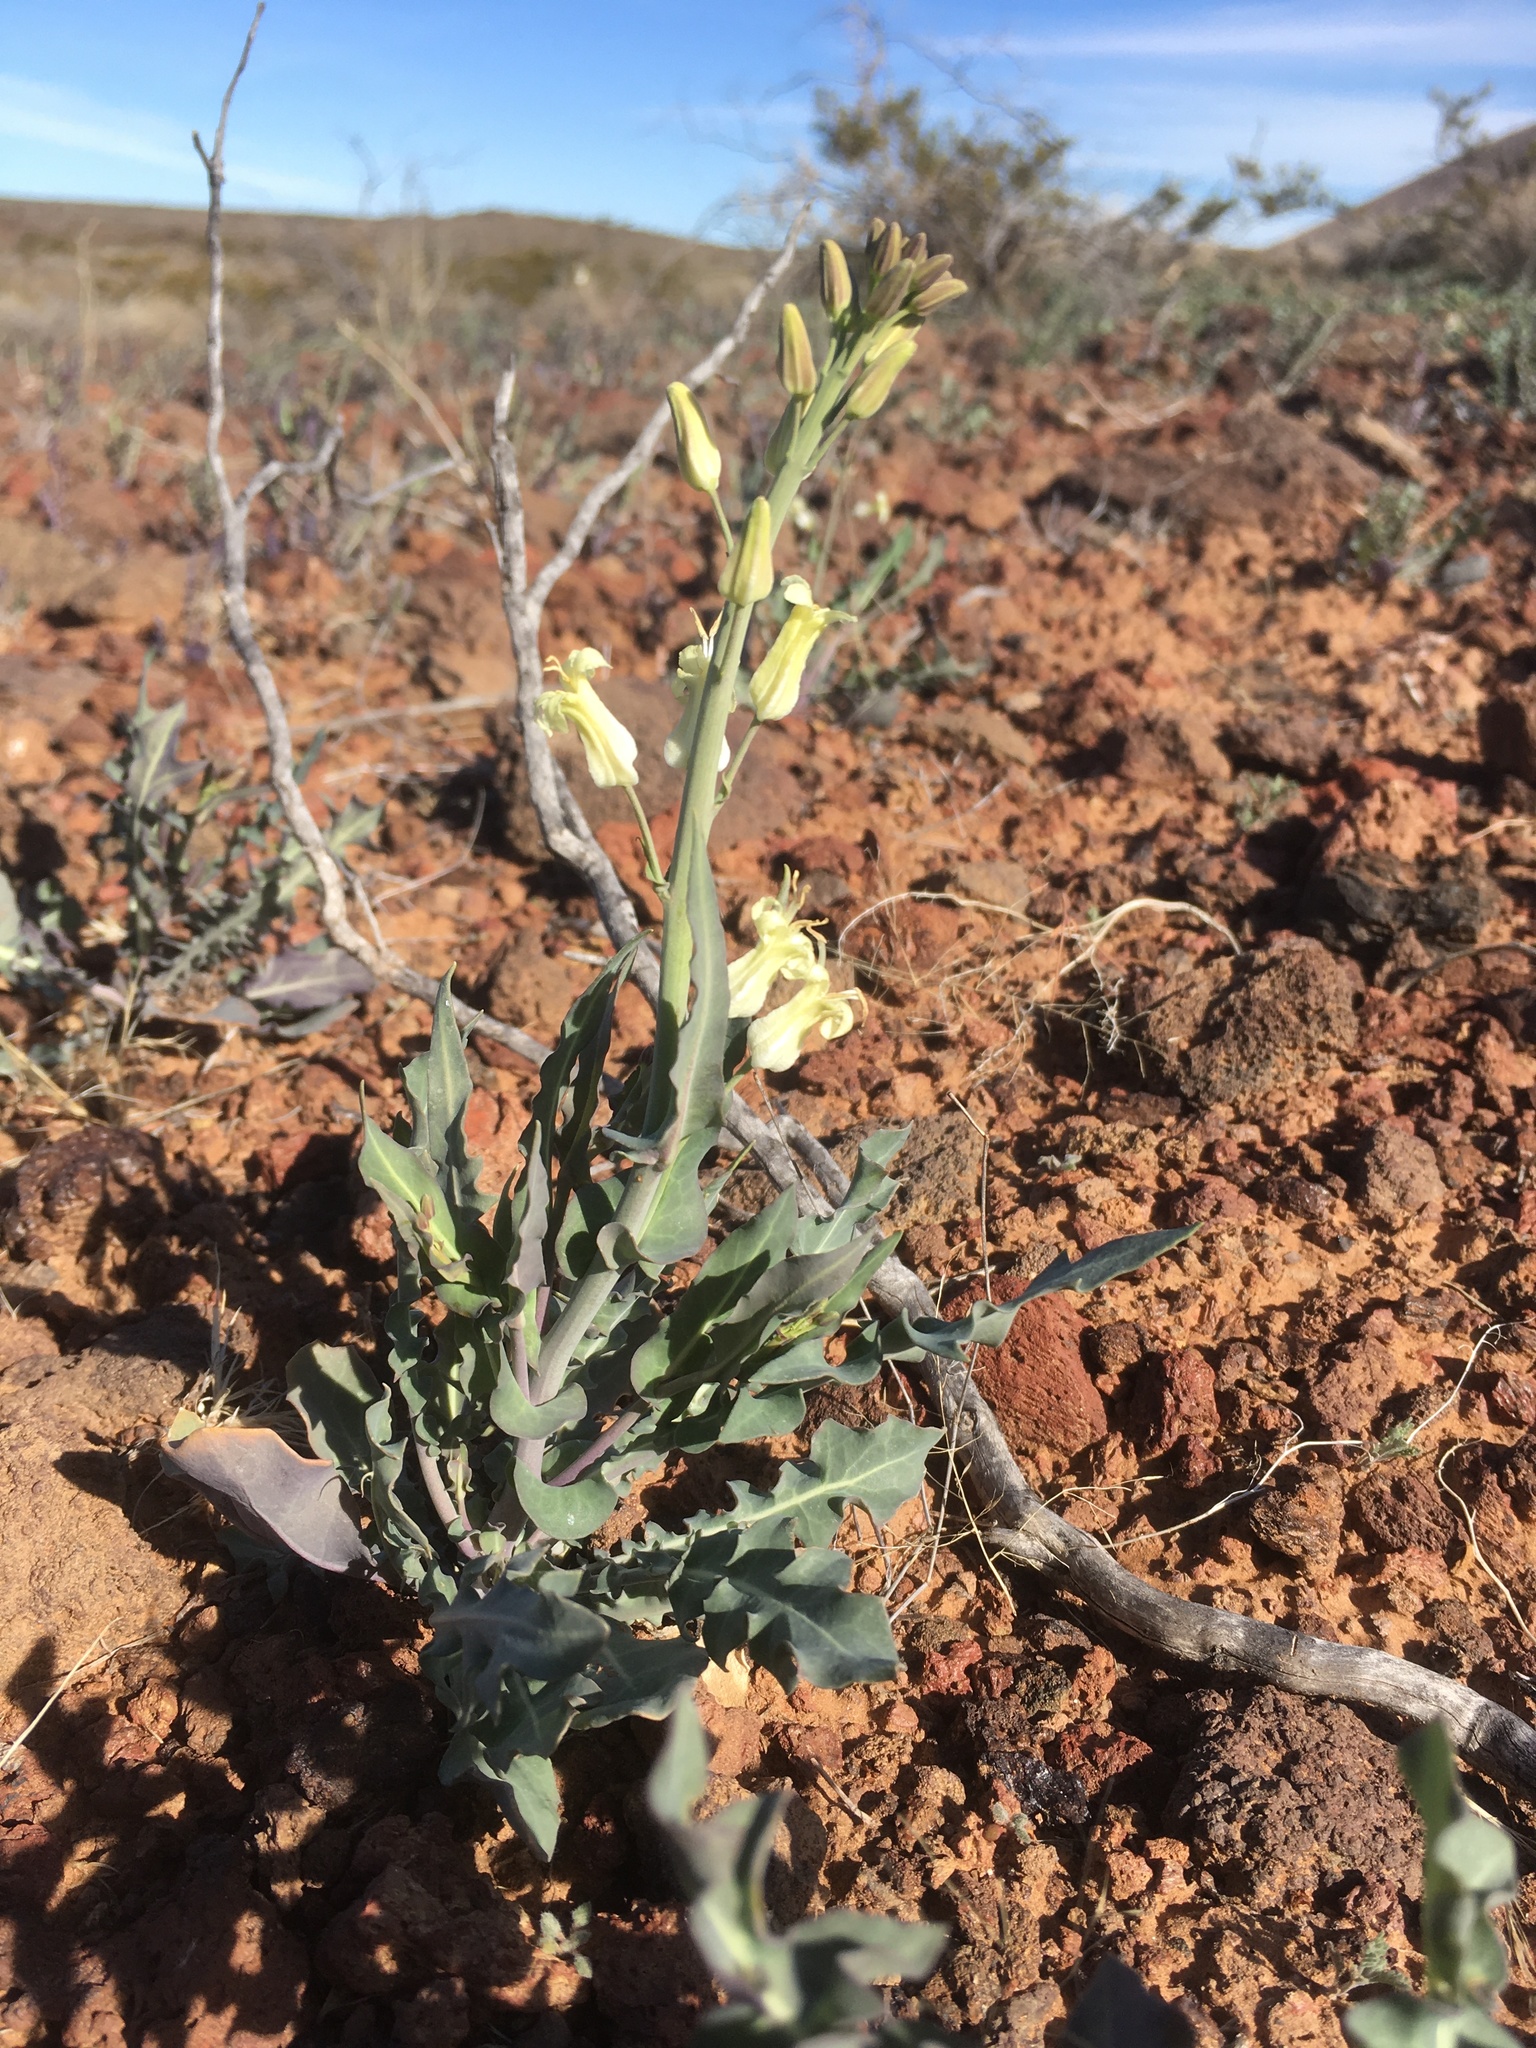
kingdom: Plantae
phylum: Tracheophyta
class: Magnoliopsida
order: Brassicales
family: Brassicaceae
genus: Streptanthus
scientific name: Streptanthus carinatus
